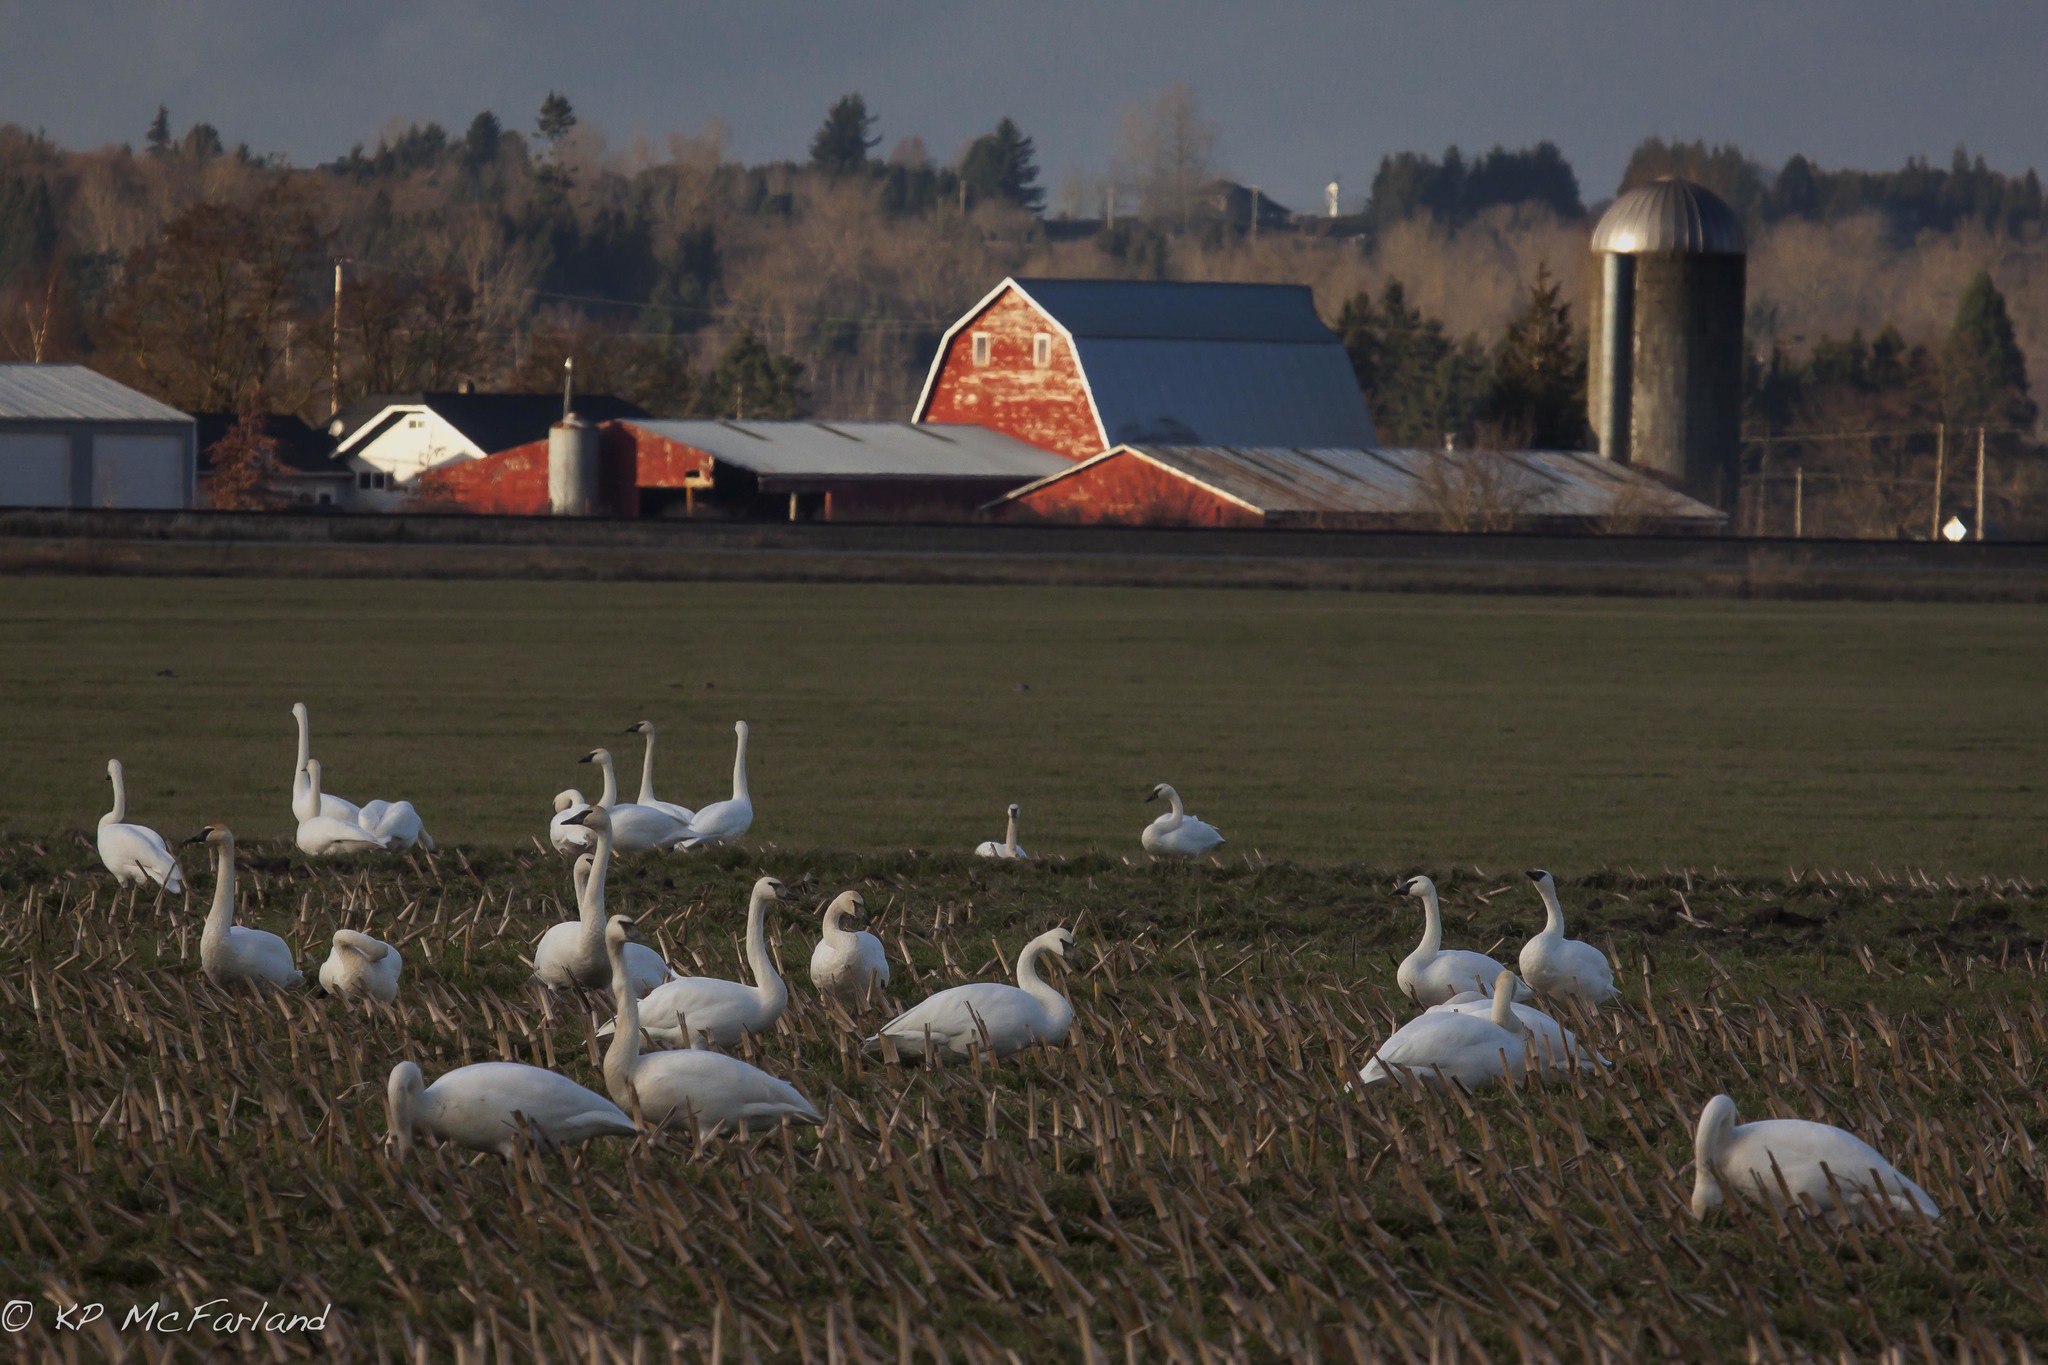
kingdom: Animalia
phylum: Chordata
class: Aves
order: Anseriformes
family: Anatidae
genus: Cygnus
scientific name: Cygnus buccinator
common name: Trumpeter swan
